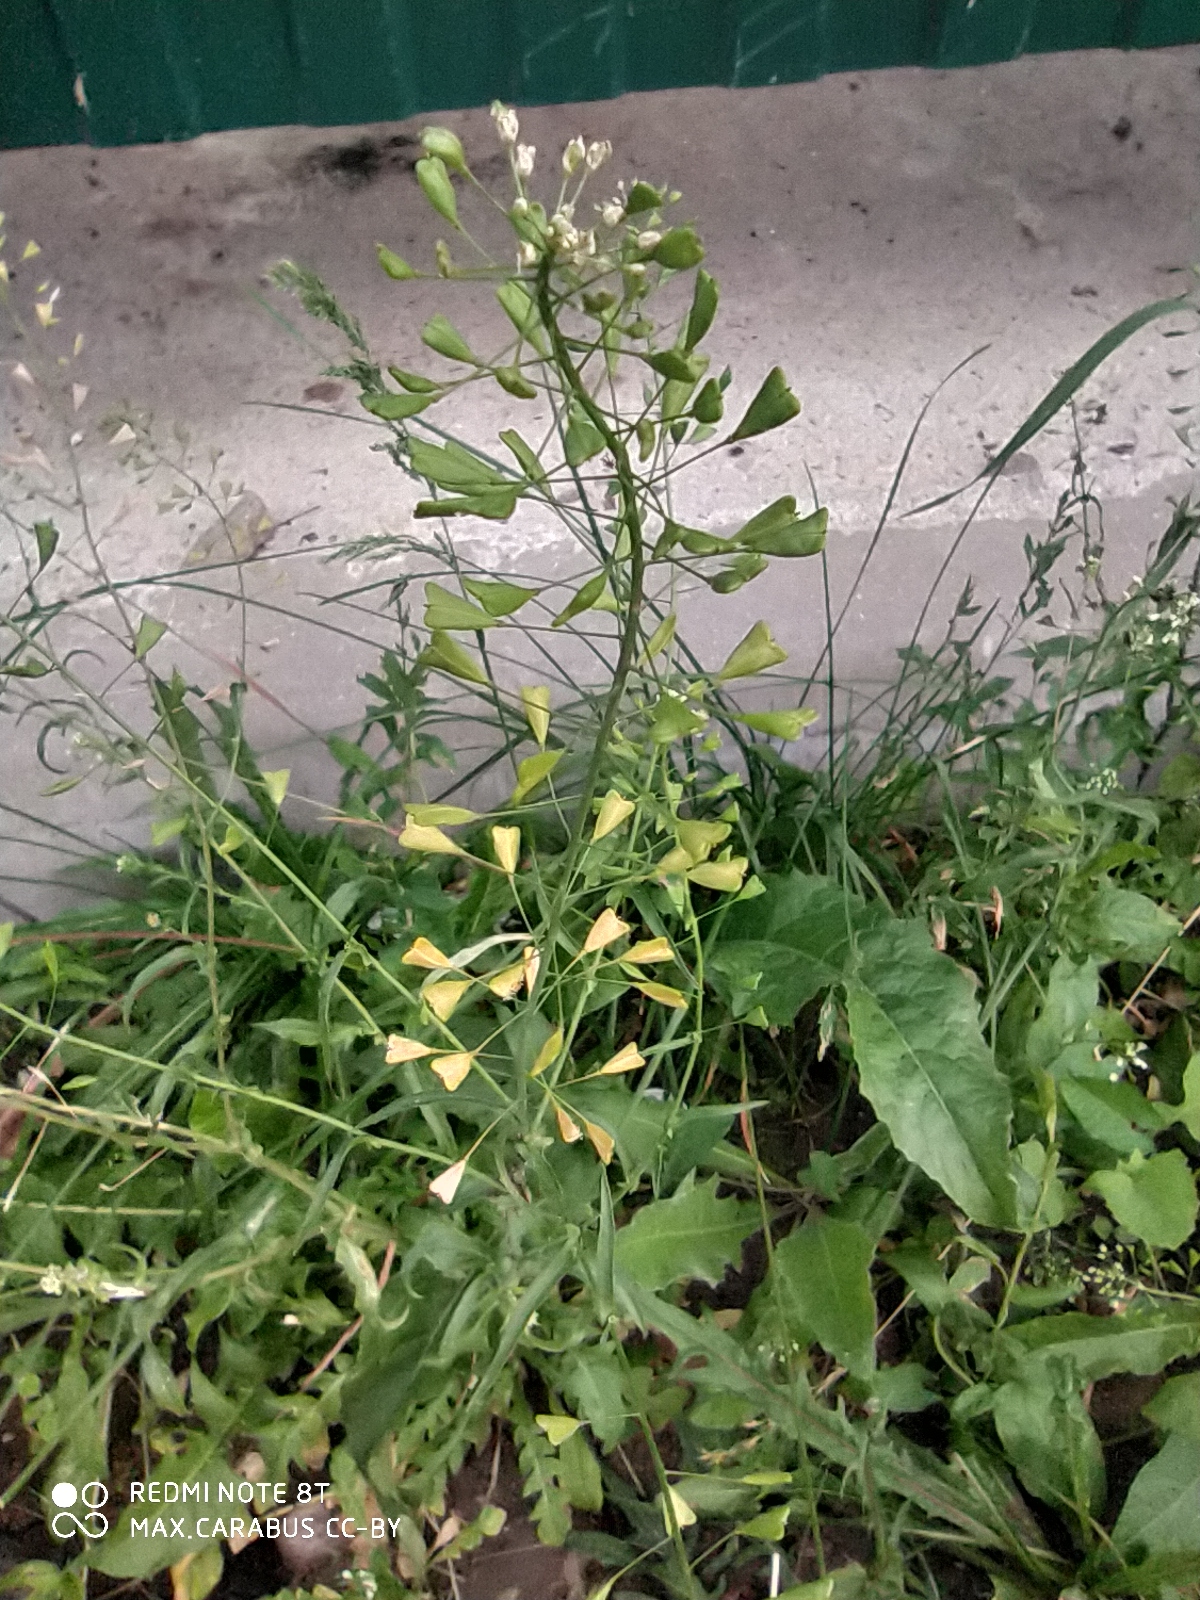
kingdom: Plantae
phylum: Tracheophyta
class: Magnoliopsida
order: Brassicales
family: Brassicaceae
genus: Capsella
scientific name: Capsella bursa-pastoris
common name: Shepherd's purse
